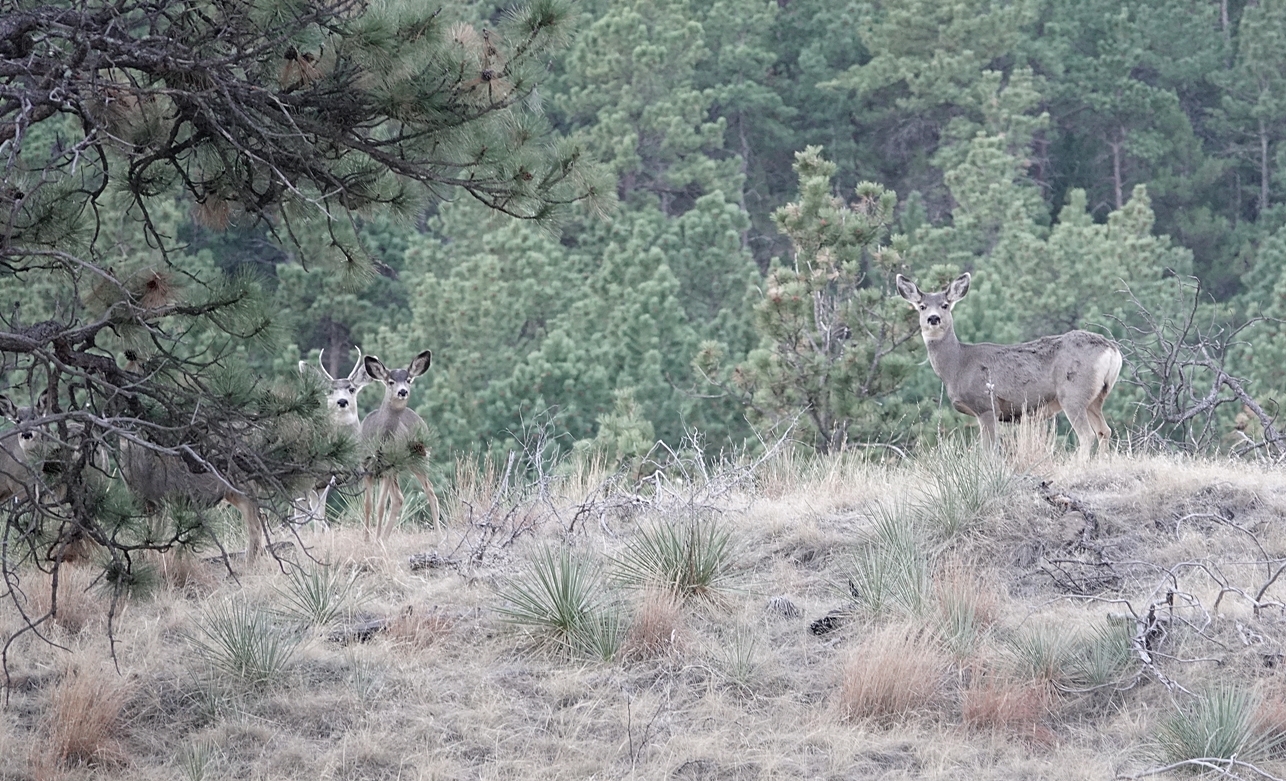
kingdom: Animalia
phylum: Chordata
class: Mammalia
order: Artiodactyla
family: Cervidae
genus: Odocoileus
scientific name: Odocoileus hemionus
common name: Mule deer
